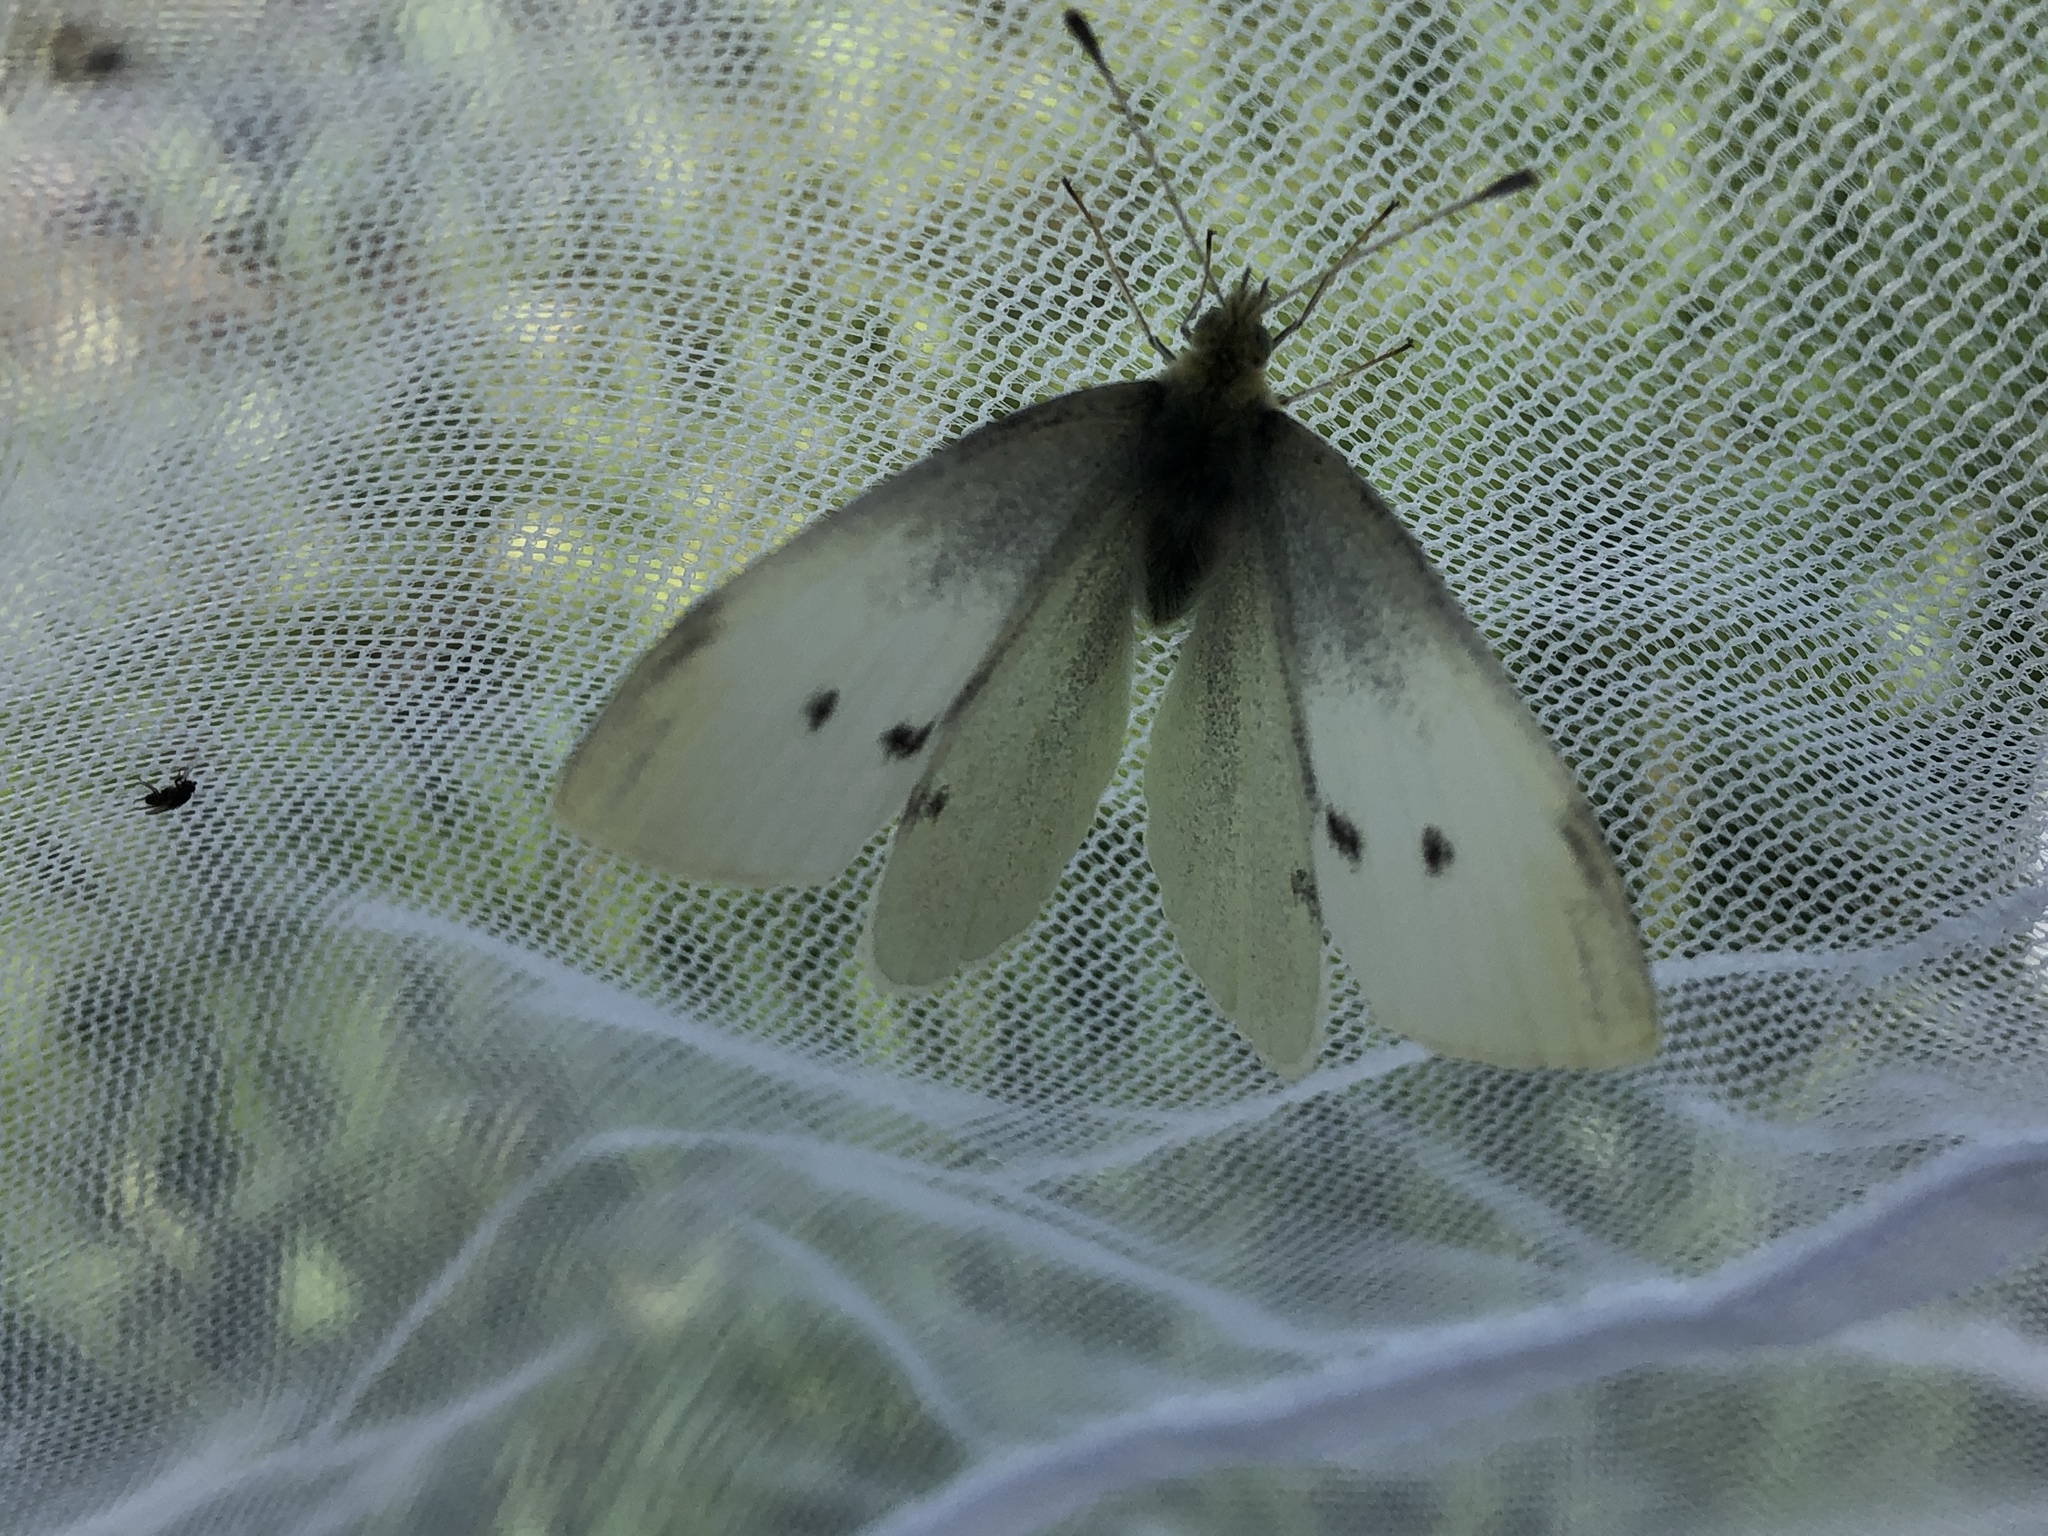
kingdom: Animalia
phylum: Arthropoda
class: Insecta
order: Lepidoptera
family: Pieridae
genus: Pieris
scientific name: Pieris rapae
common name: Small white
